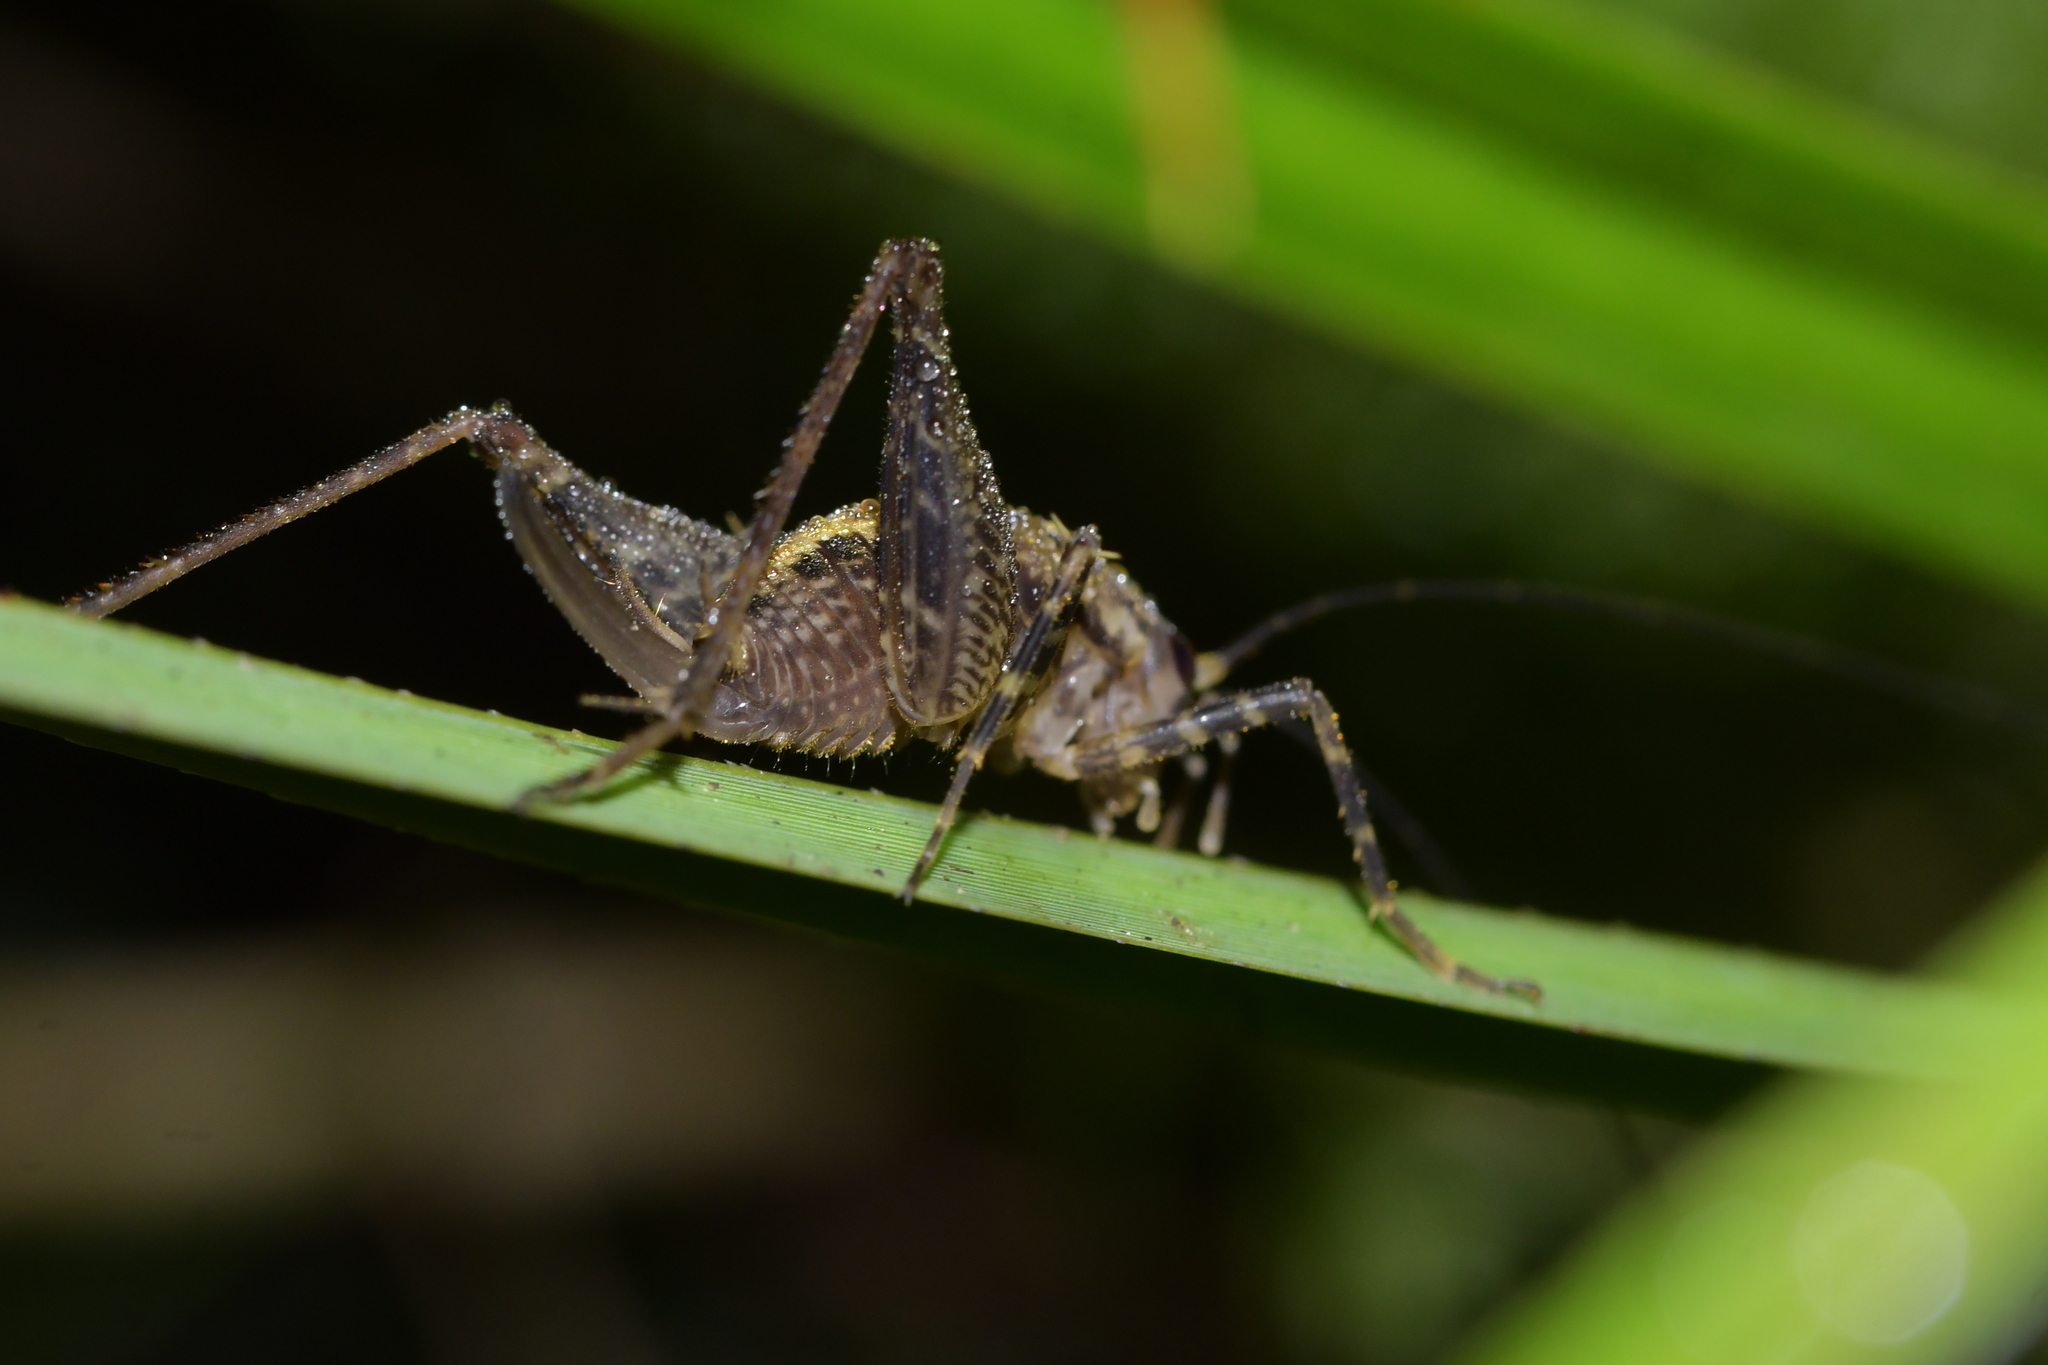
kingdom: Animalia
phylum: Arthropoda
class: Insecta
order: Orthoptera
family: Rhaphidophoridae
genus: Pleioplectron
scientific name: Pleioplectron hudsoni
